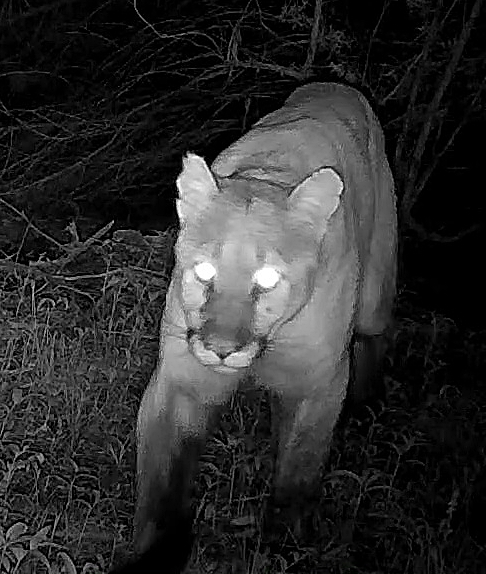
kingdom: Animalia
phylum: Chordata
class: Mammalia
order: Carnivora
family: Felidae
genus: Puma
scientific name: Puma concolor
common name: Puma
